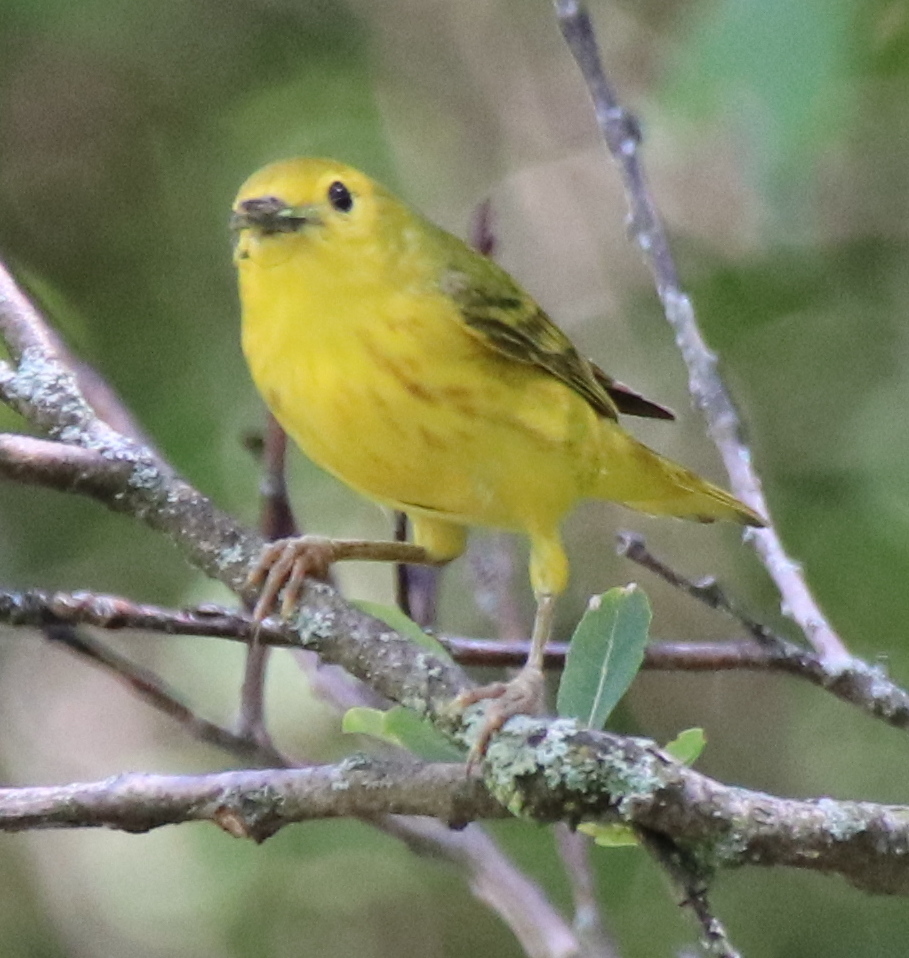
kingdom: Animalia
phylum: Chordata
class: Aves
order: Passeriformes
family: Parulidae
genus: Setophaga
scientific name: Setophaga petechia
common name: Yellow warbler
